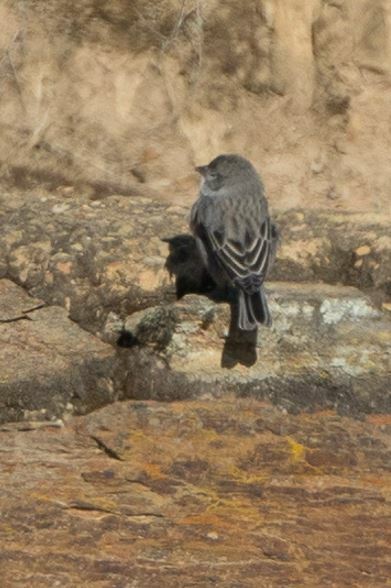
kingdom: Animalia
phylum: Chordata
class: Aves
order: Passeriformes
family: Thraupidae
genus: Geospizopsis
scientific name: Geospizopsis plebejus
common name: Ash-breasted sierra-finch
